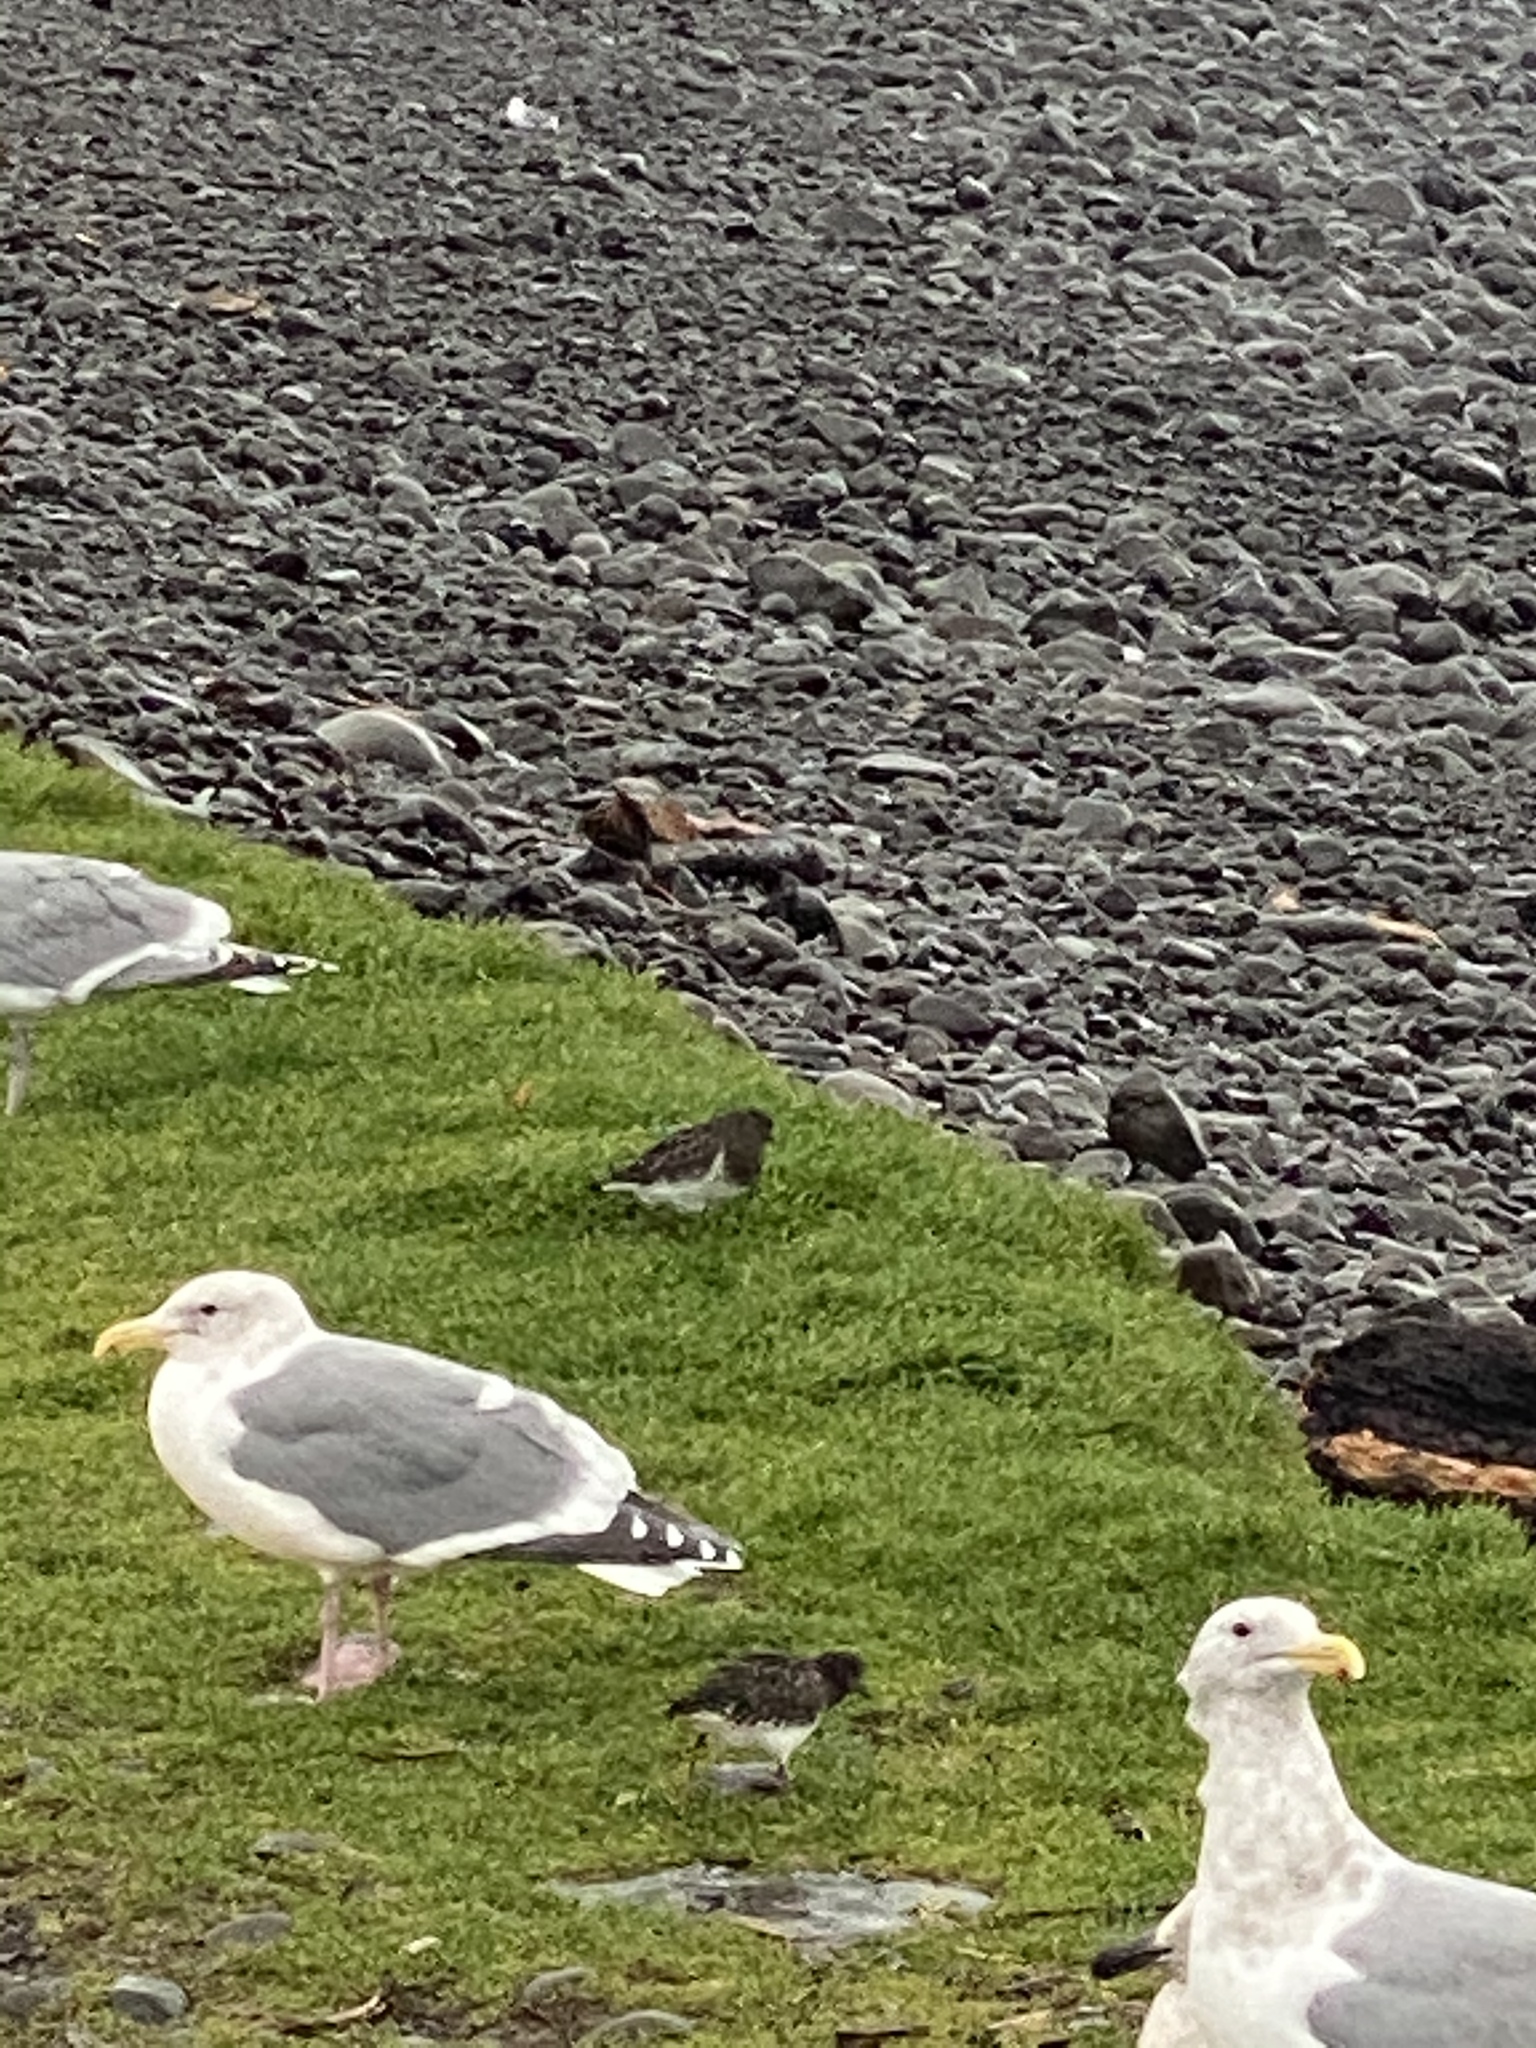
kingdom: Animalia
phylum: Chordata
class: Aves
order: Charadriiformes
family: Scolopacidae
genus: Arenaria
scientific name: Arenaria melanocephala
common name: Black turnstone
